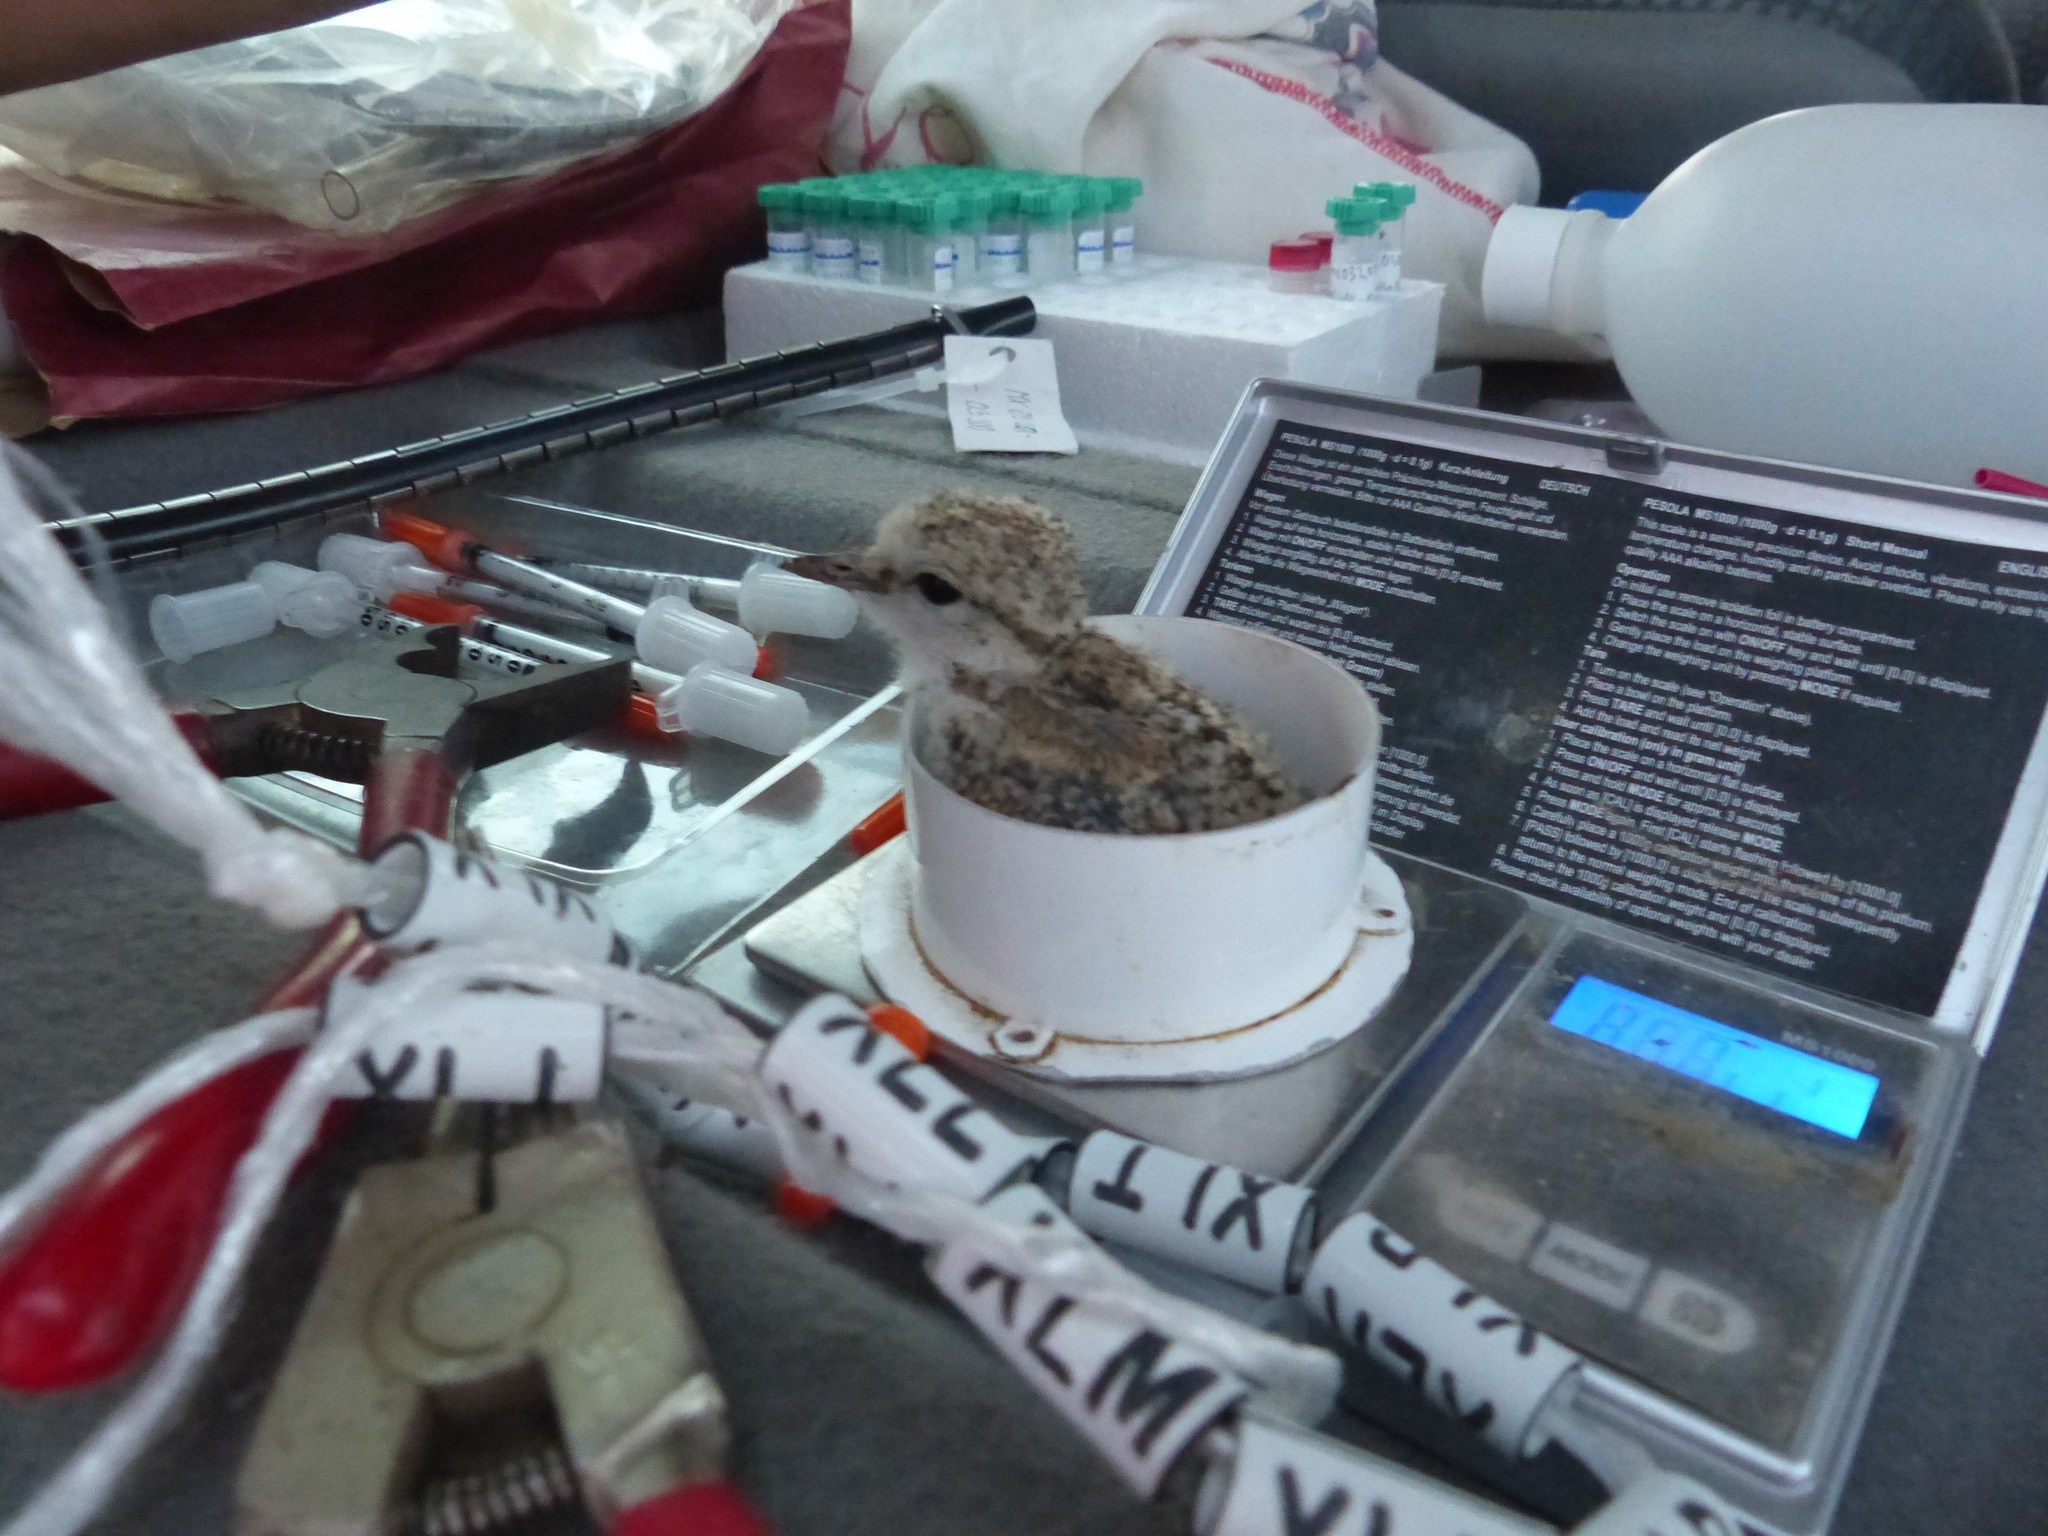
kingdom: Animalia
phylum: Chordata
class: Aves
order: Charadriiformes
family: Charadriidae
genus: Charadrius
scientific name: Charadrius alexandrinus
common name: Kentish plover
